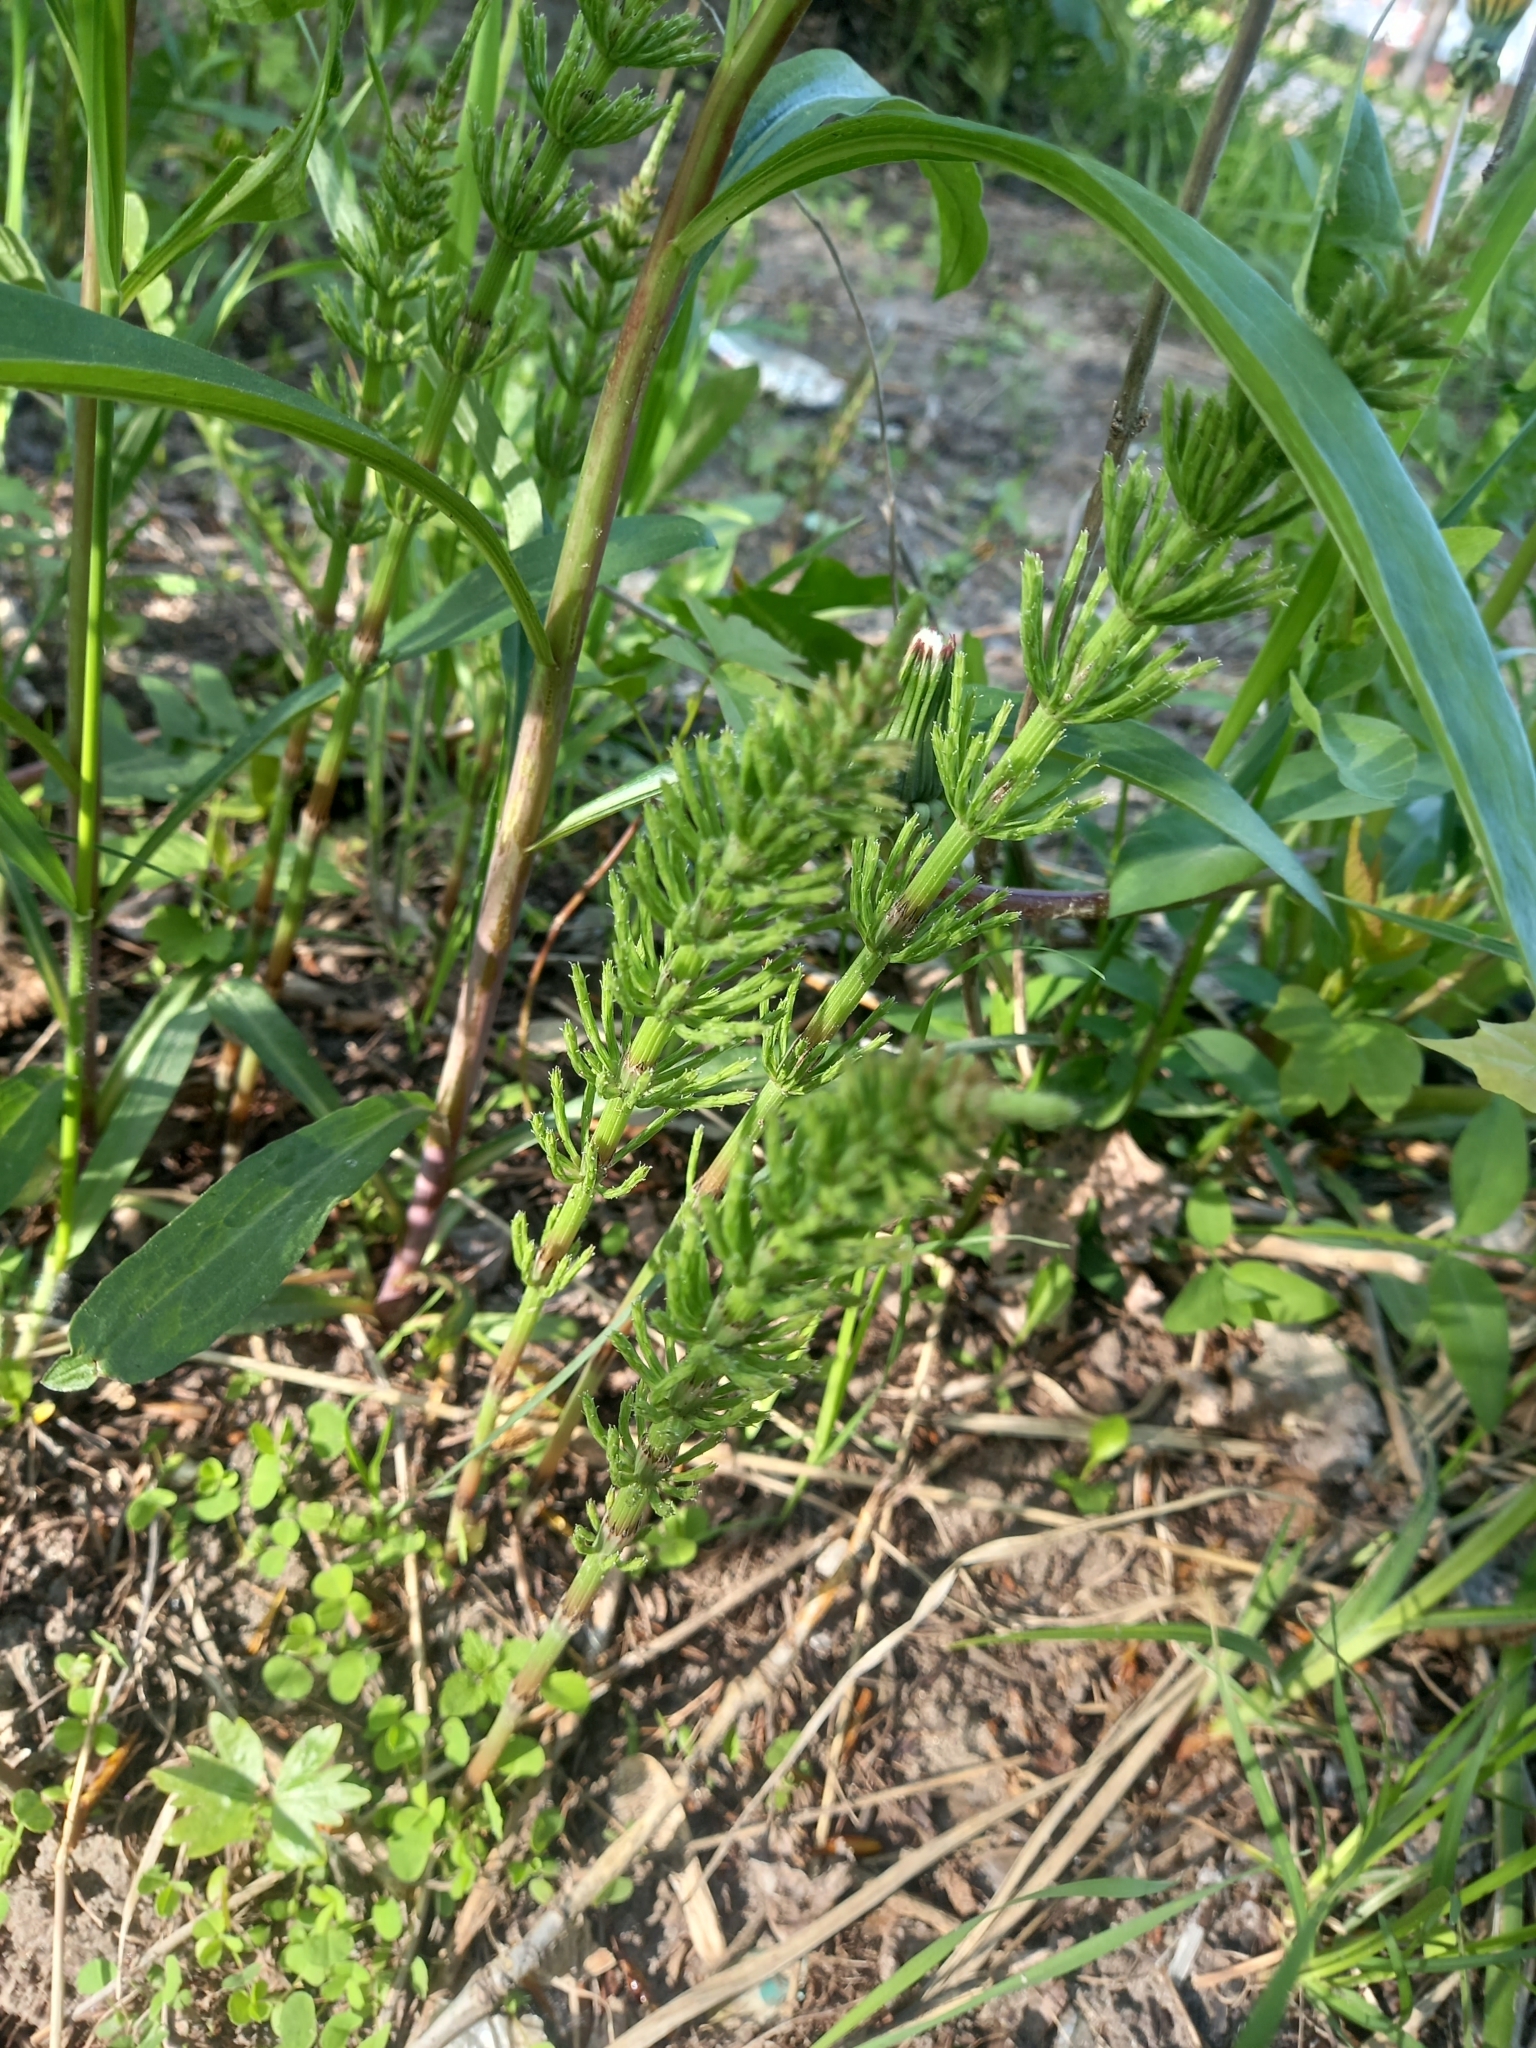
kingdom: Plantae
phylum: Tracheophyta
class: Polypodiopsida
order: Equisetales
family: Equisetaceae
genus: Equisetum
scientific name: Equisetum arvense
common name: Field horsetail
